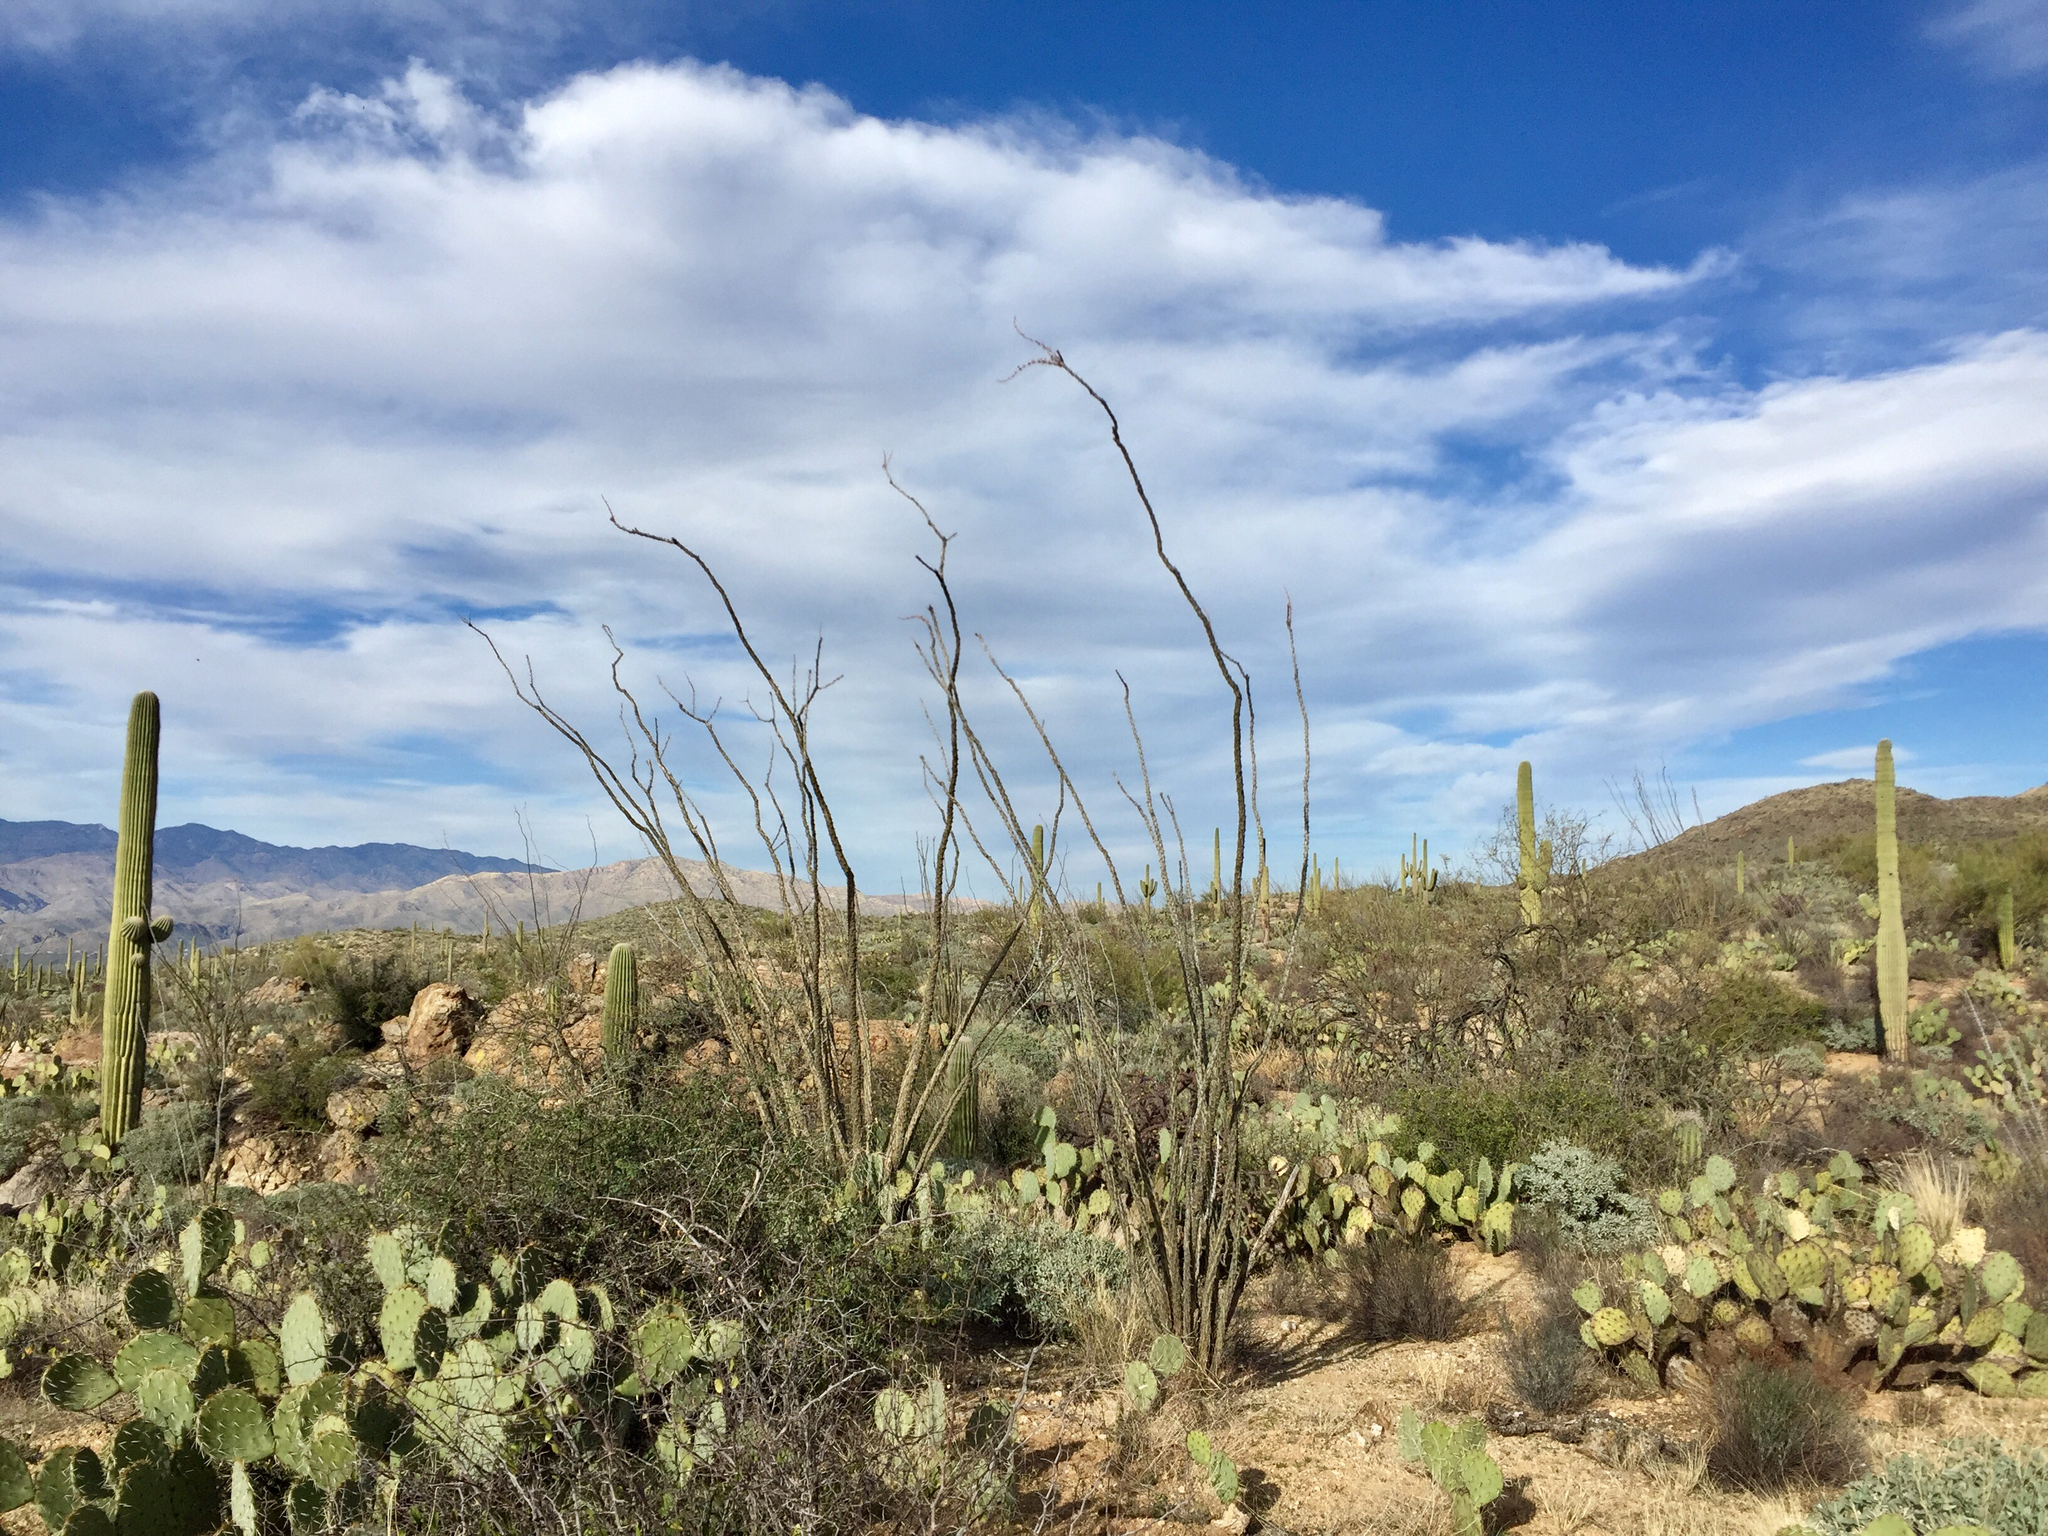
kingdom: Plantae
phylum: Tracheophyta
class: Magnoliopsida
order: Ericales
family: Fouquieriaceae
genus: Fouquieria
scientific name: Fouquieria splendens
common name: Vine-cactus
